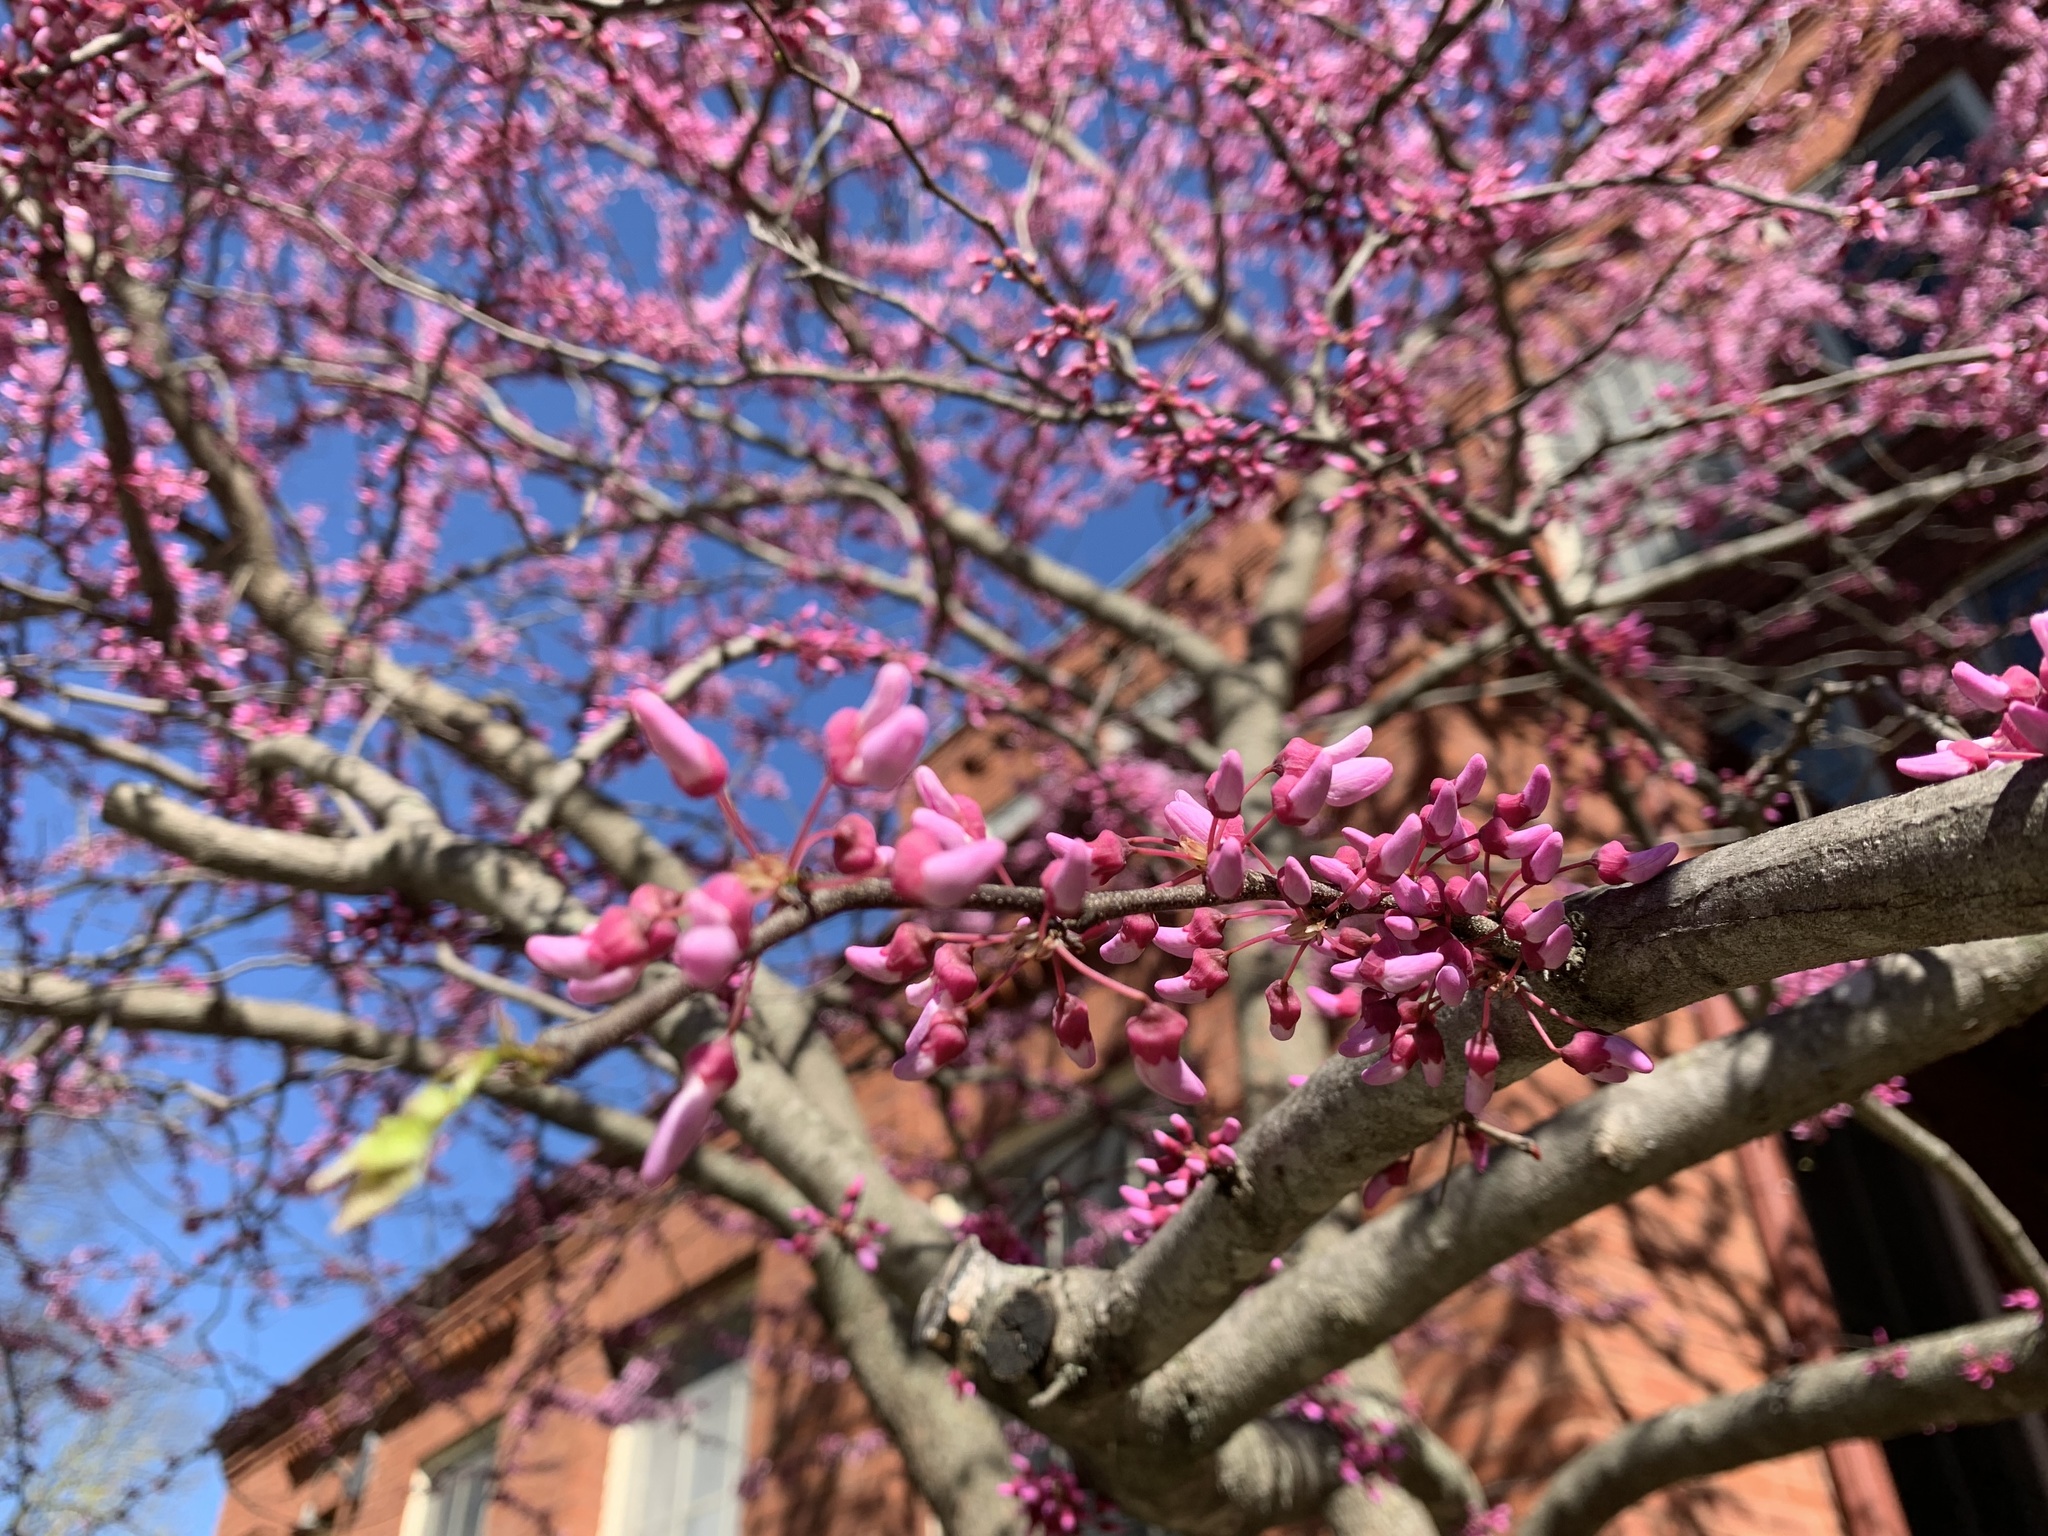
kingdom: Plantae
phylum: Tracheophyta
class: Magnoliopsida
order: Fabales
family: Fabaceae
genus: Cercis
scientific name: Cercis canadensis
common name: Eastern redbud
